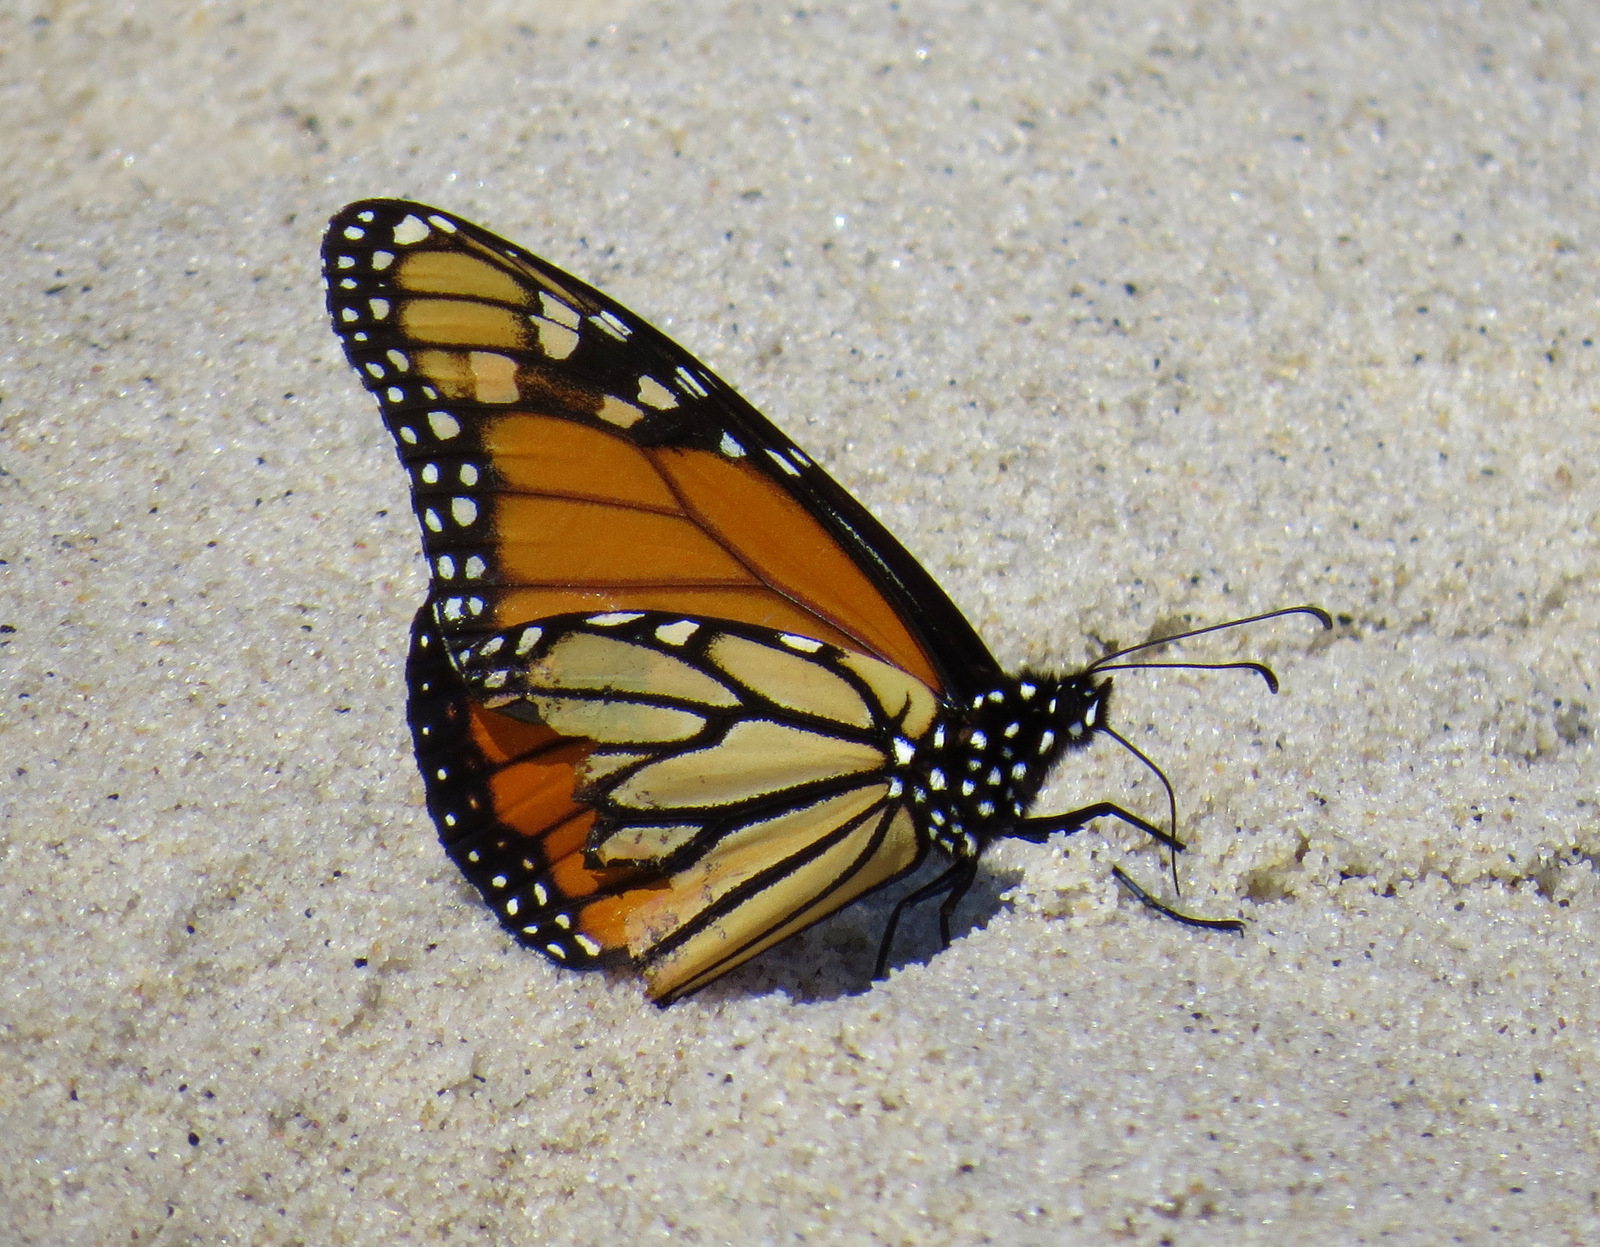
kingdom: Animalia
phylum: Arthropoda
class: Insecta
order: Lepidoptera
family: Nymphalidae
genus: Danaus
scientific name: Danaus plexippus
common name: Monarch
